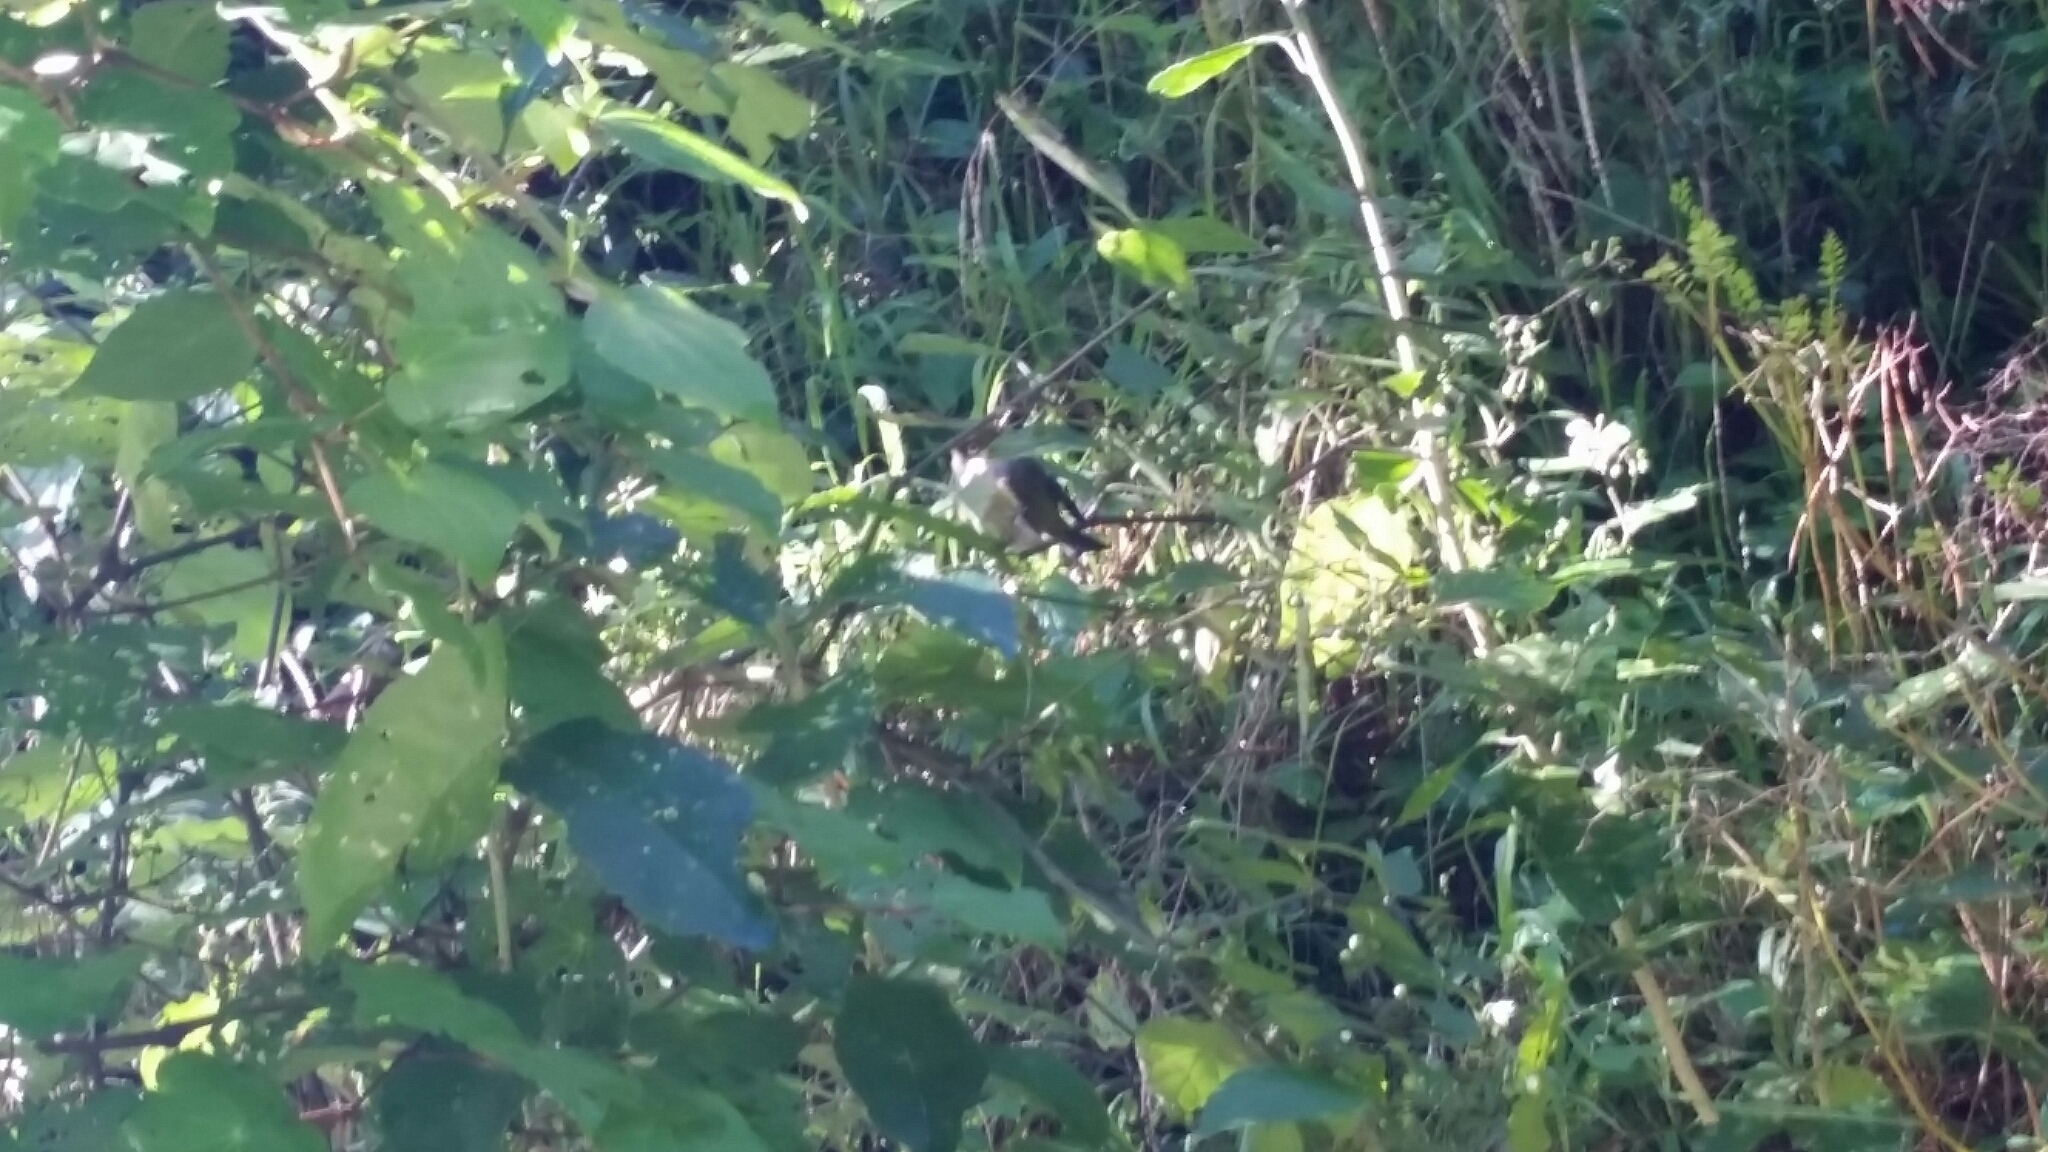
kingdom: Animalia
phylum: Chordata
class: Aves
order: Passeriformes
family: Zosteropidae
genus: Zosterops
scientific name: Zosterops lateralis
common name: Silvereye
